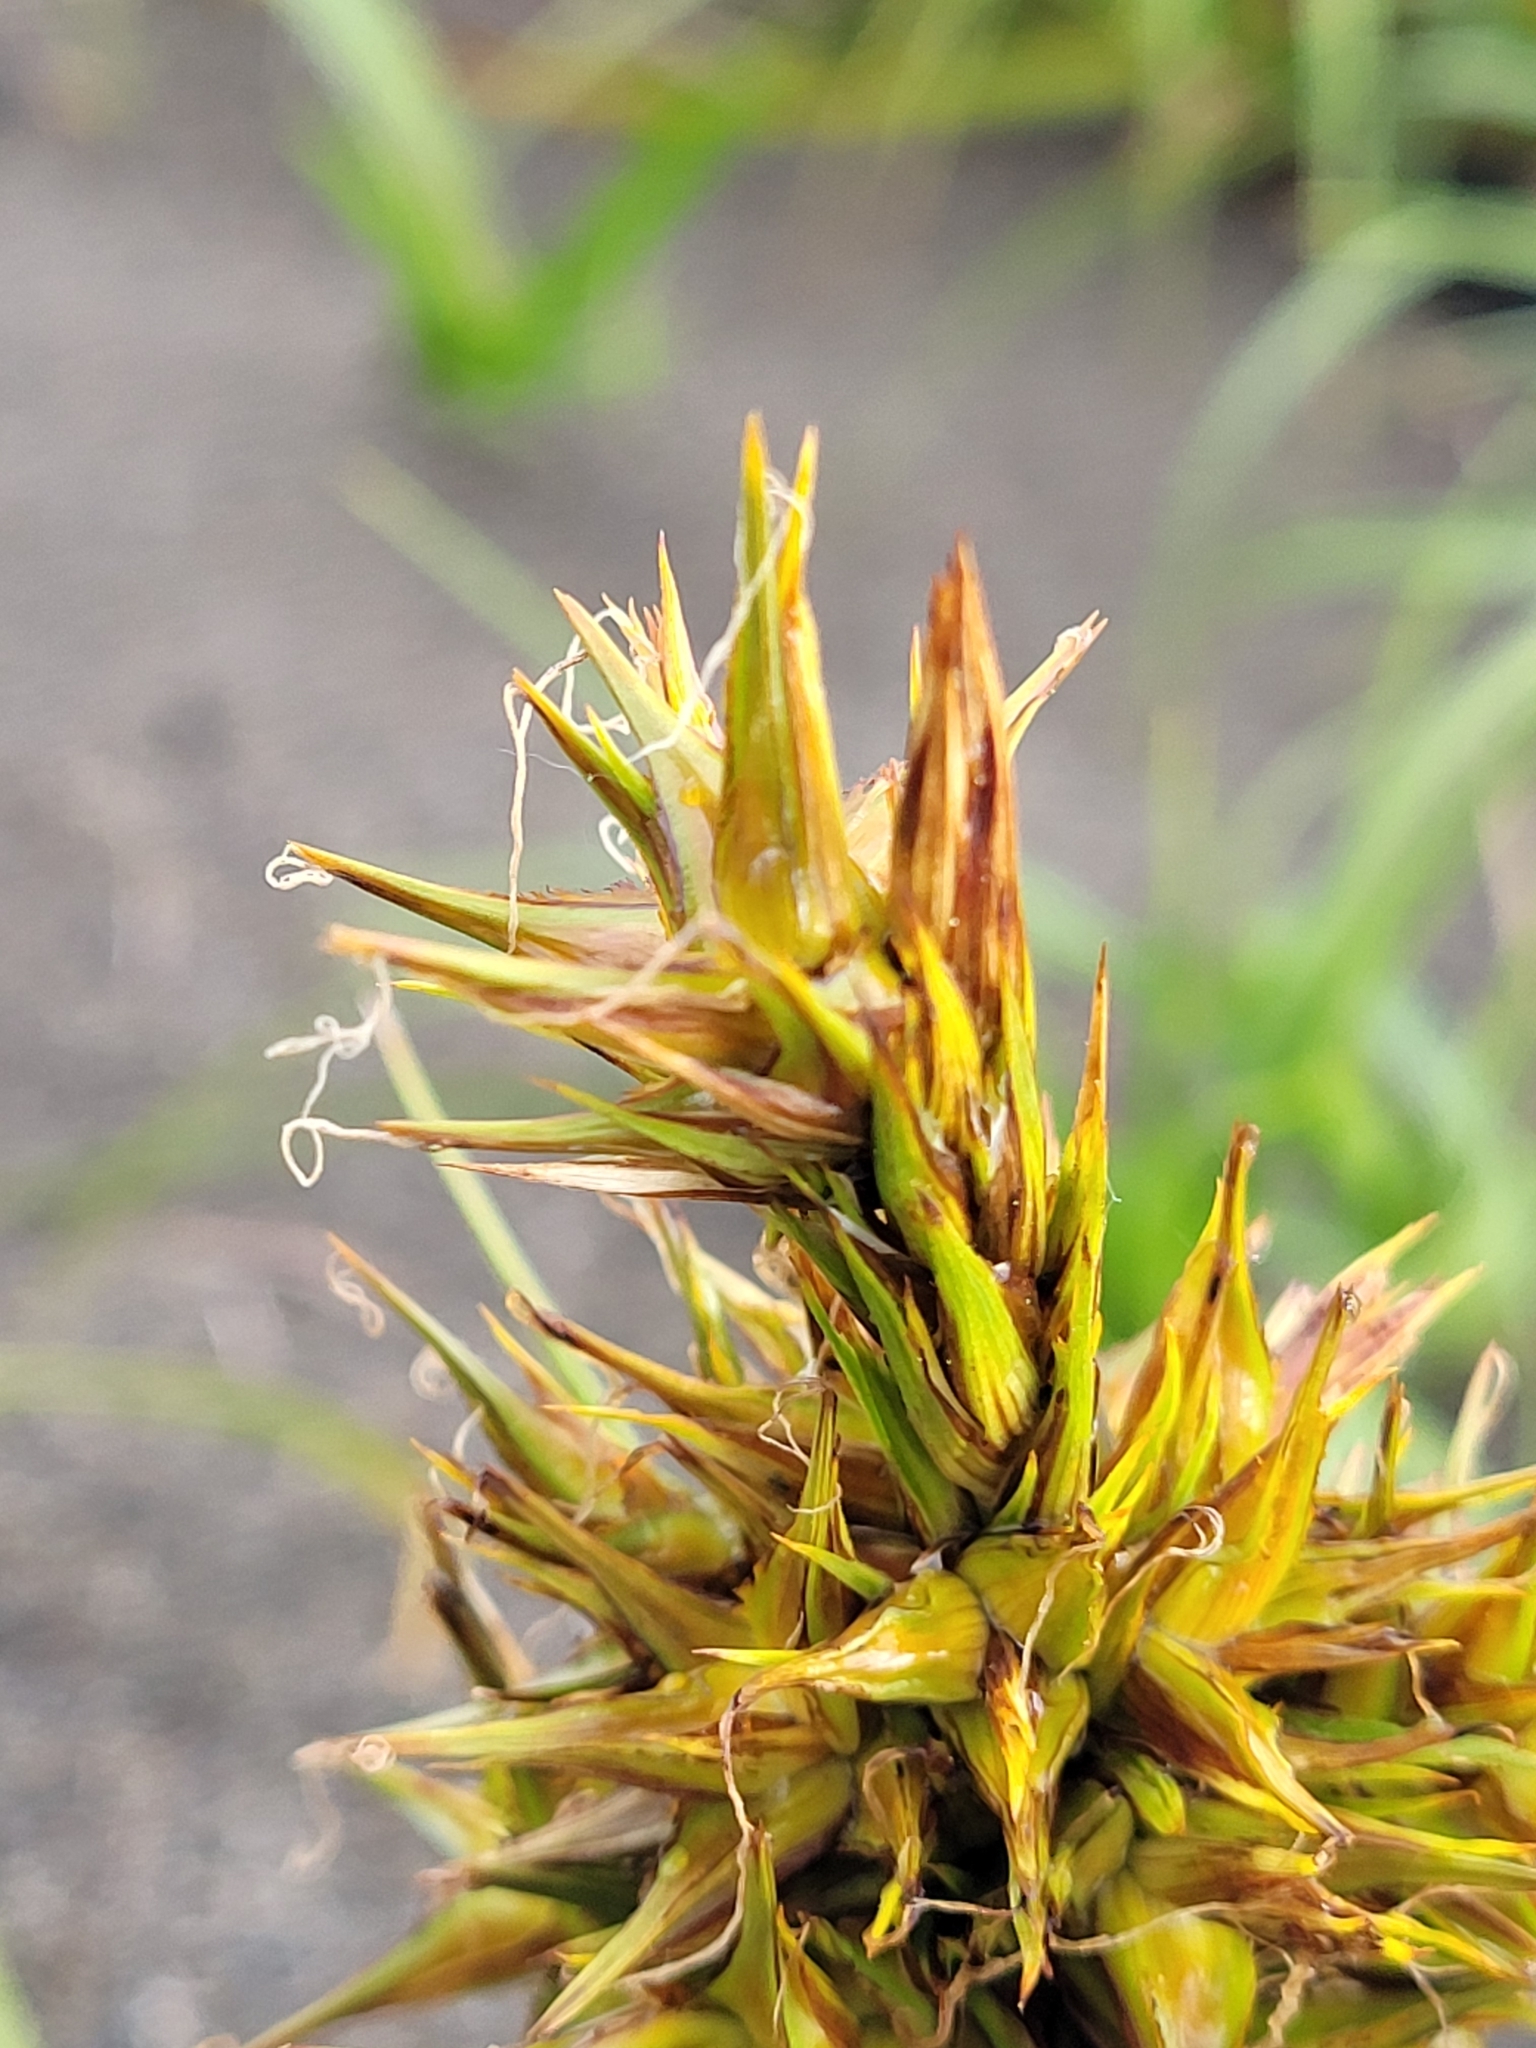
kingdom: Plantae
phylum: Tracheophyta
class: Liliopsida
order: Poales
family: Cyperaceae
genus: Carex
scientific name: Carex macrocephala
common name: Large-head sedge
